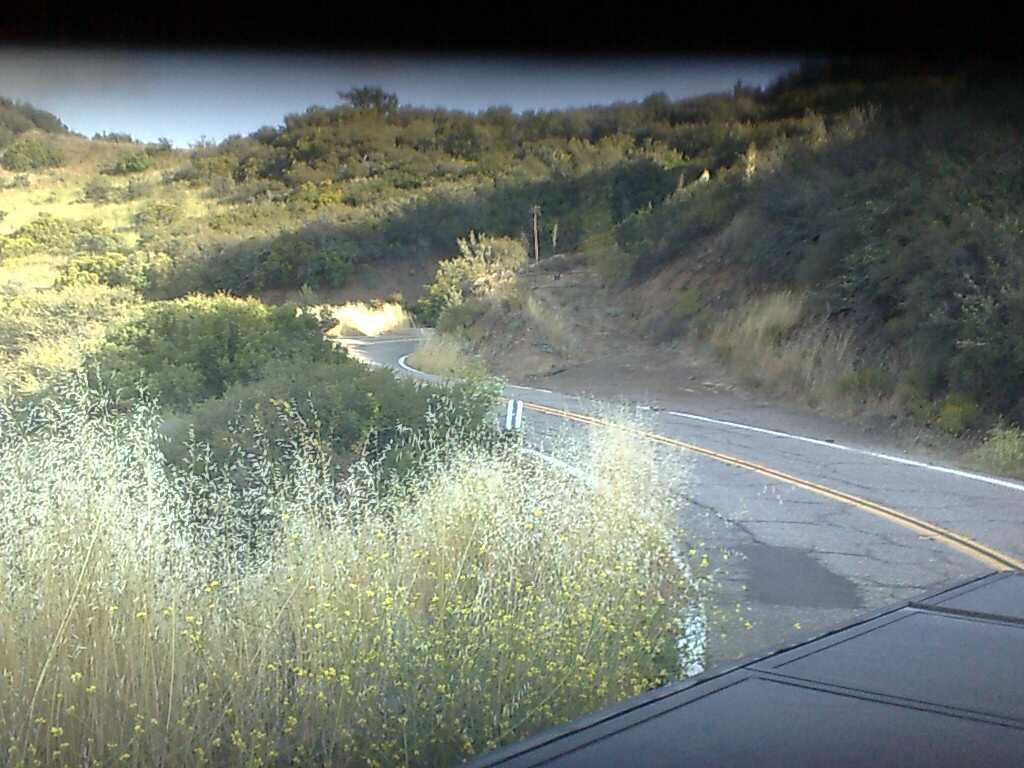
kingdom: Plantae
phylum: Tracheophyta
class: Magnoliopsida
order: Brassicales
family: Brassicaceae
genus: Hirschfeldia
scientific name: Hirschfeldia incana
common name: Hoary mustard
